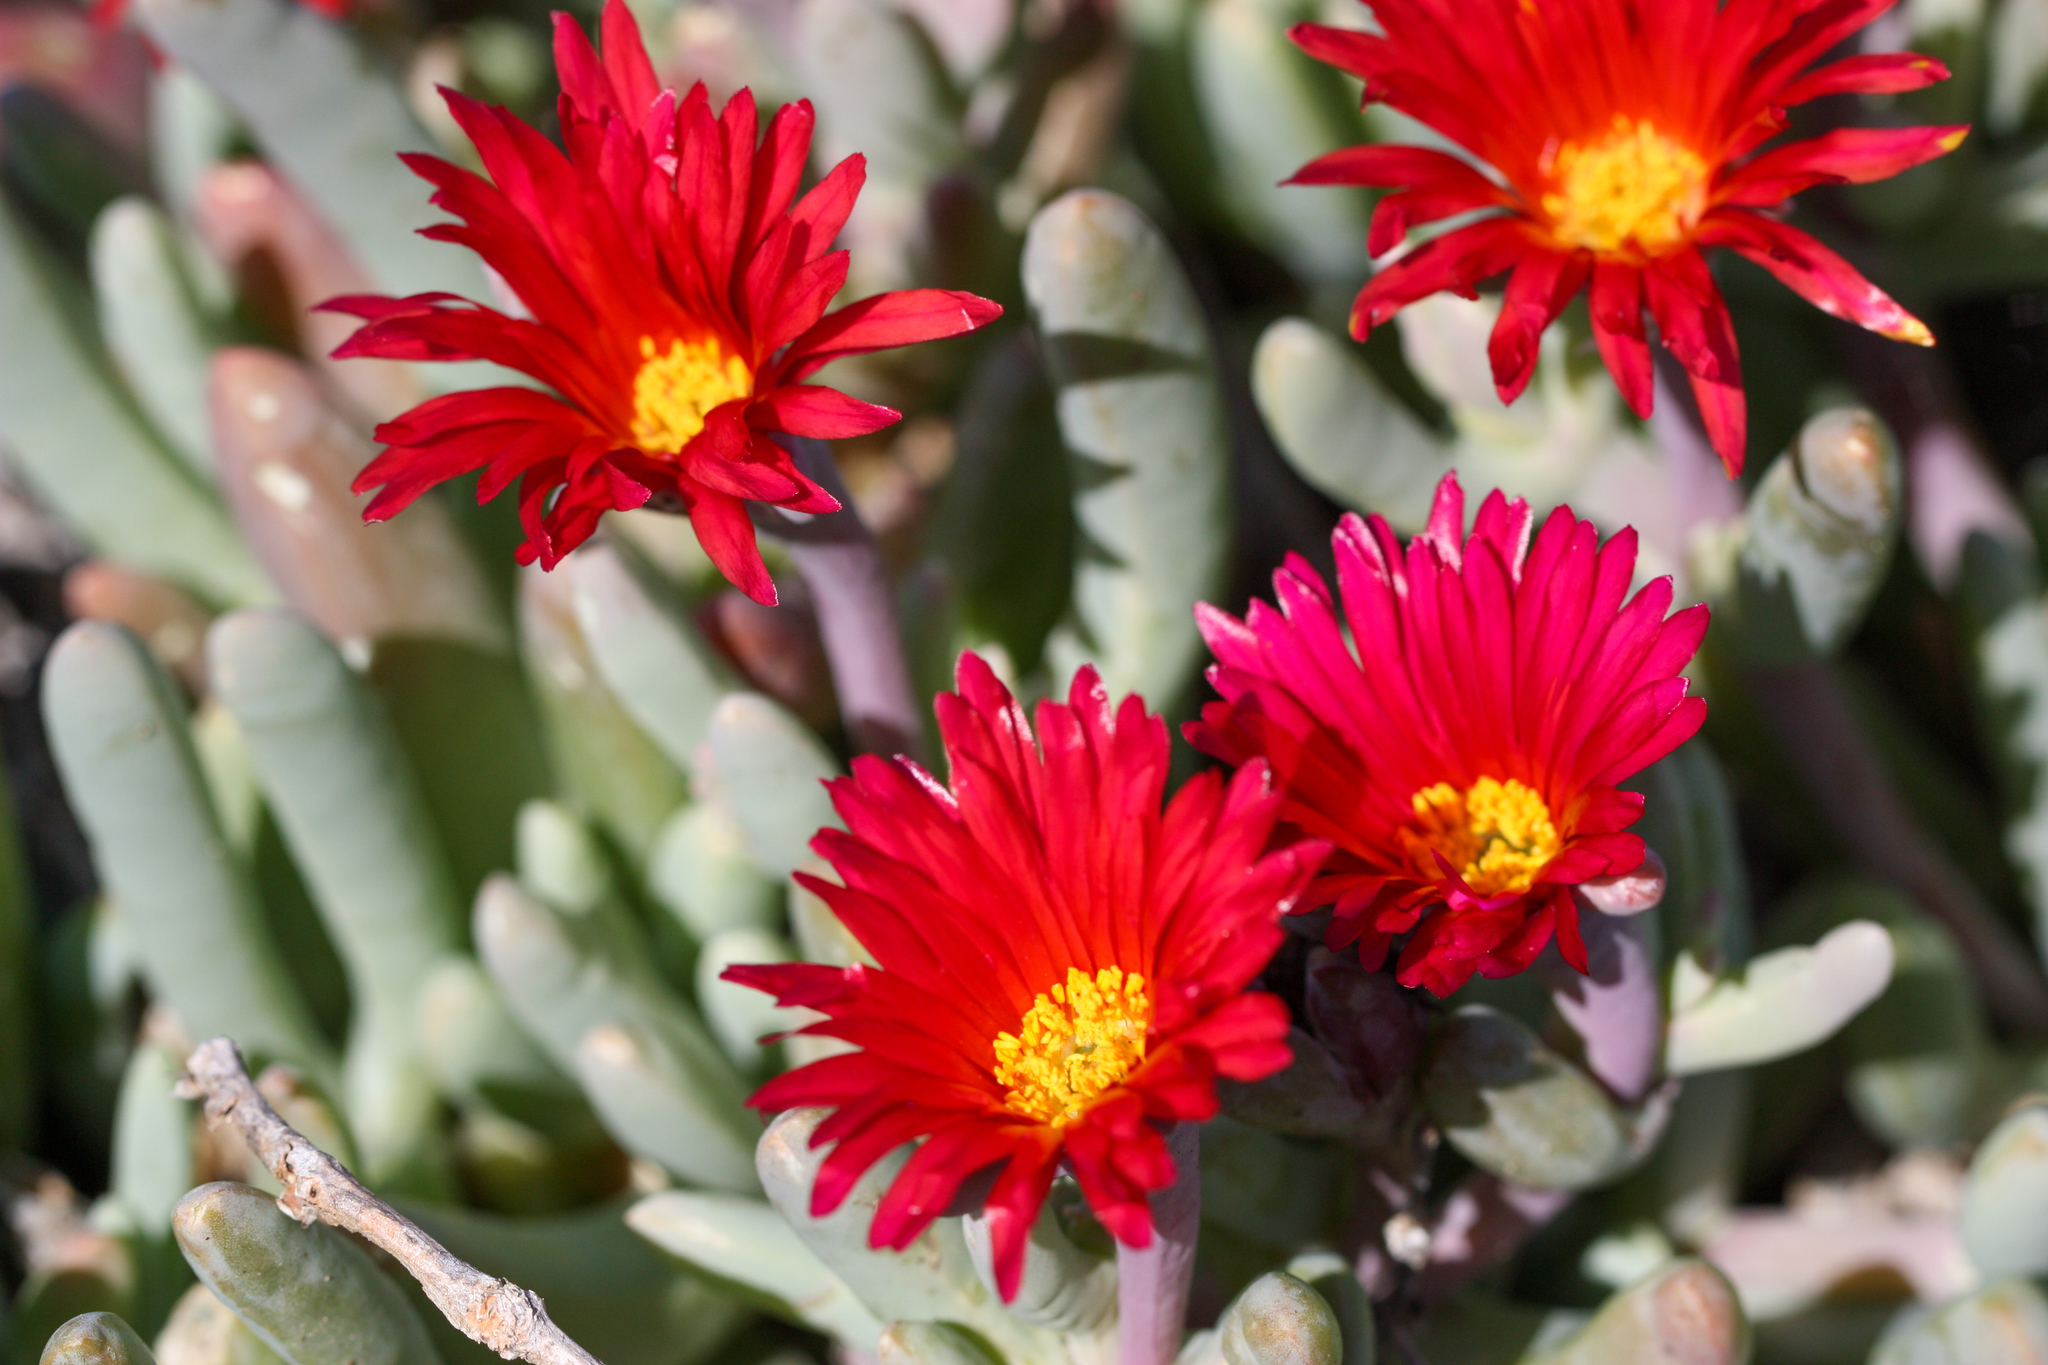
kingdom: Plantae
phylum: Tracheophyta
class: Magnoliopsida
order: Caryophyllales
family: Aizoaceae
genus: Malephora
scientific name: Malephora crocea
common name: Coppery mesemb
